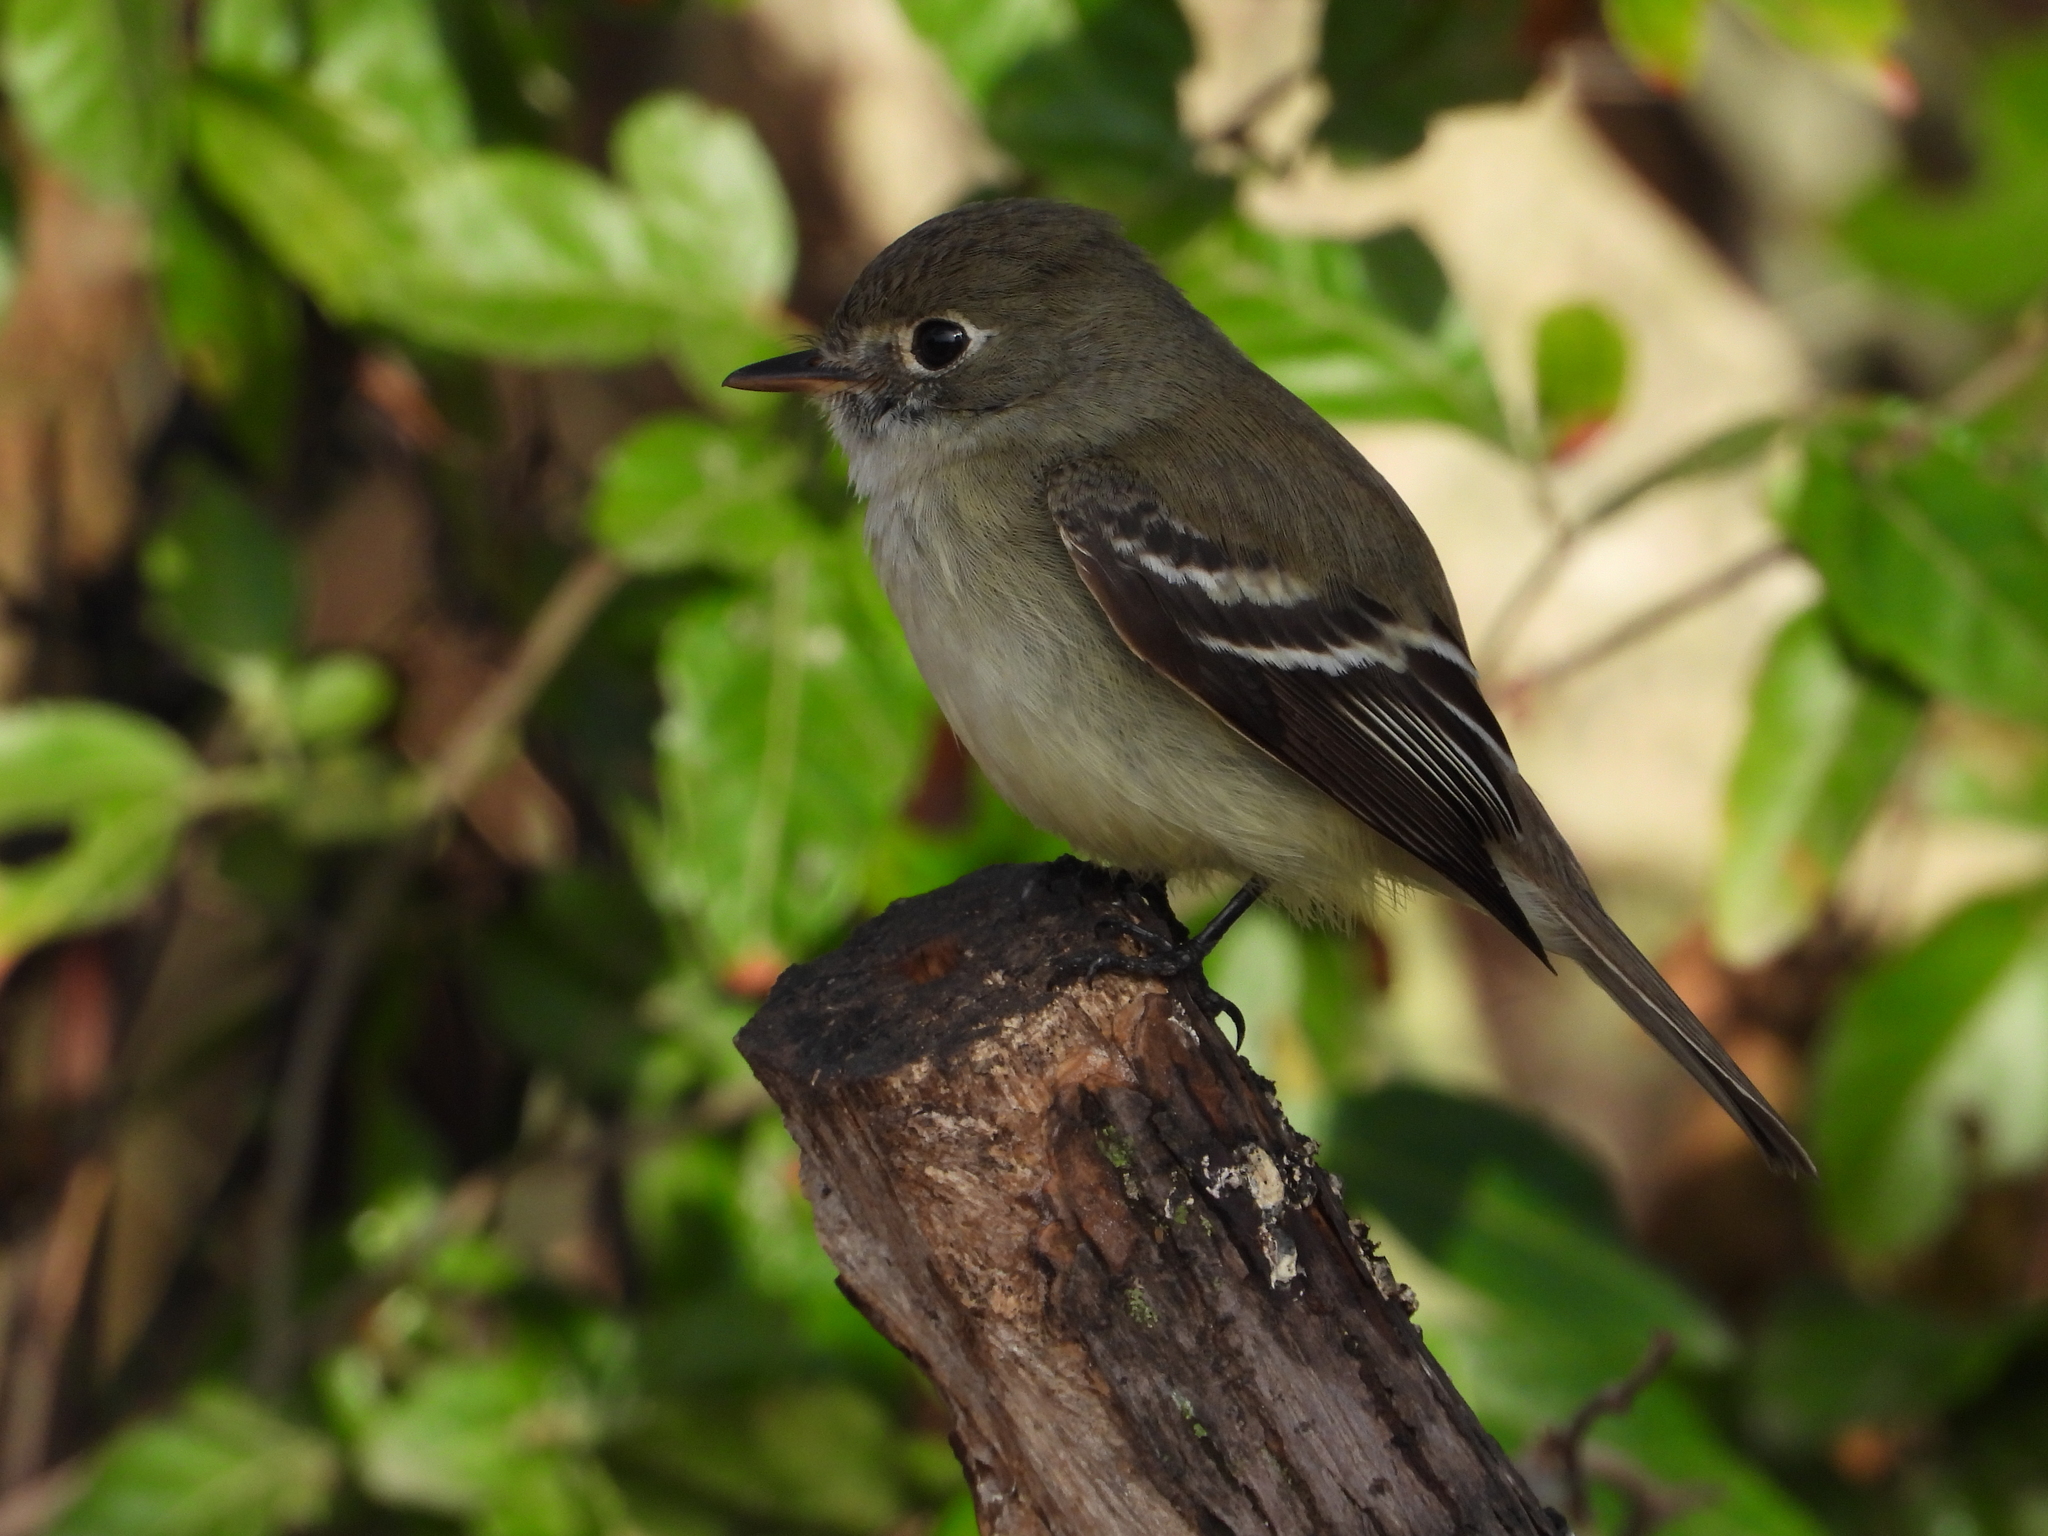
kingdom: Animalia
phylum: Chordata
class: Aves
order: Passeriformes
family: Tyrannidae
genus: Empidonax
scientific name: Empidonax minimus
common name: Least flycatcher
